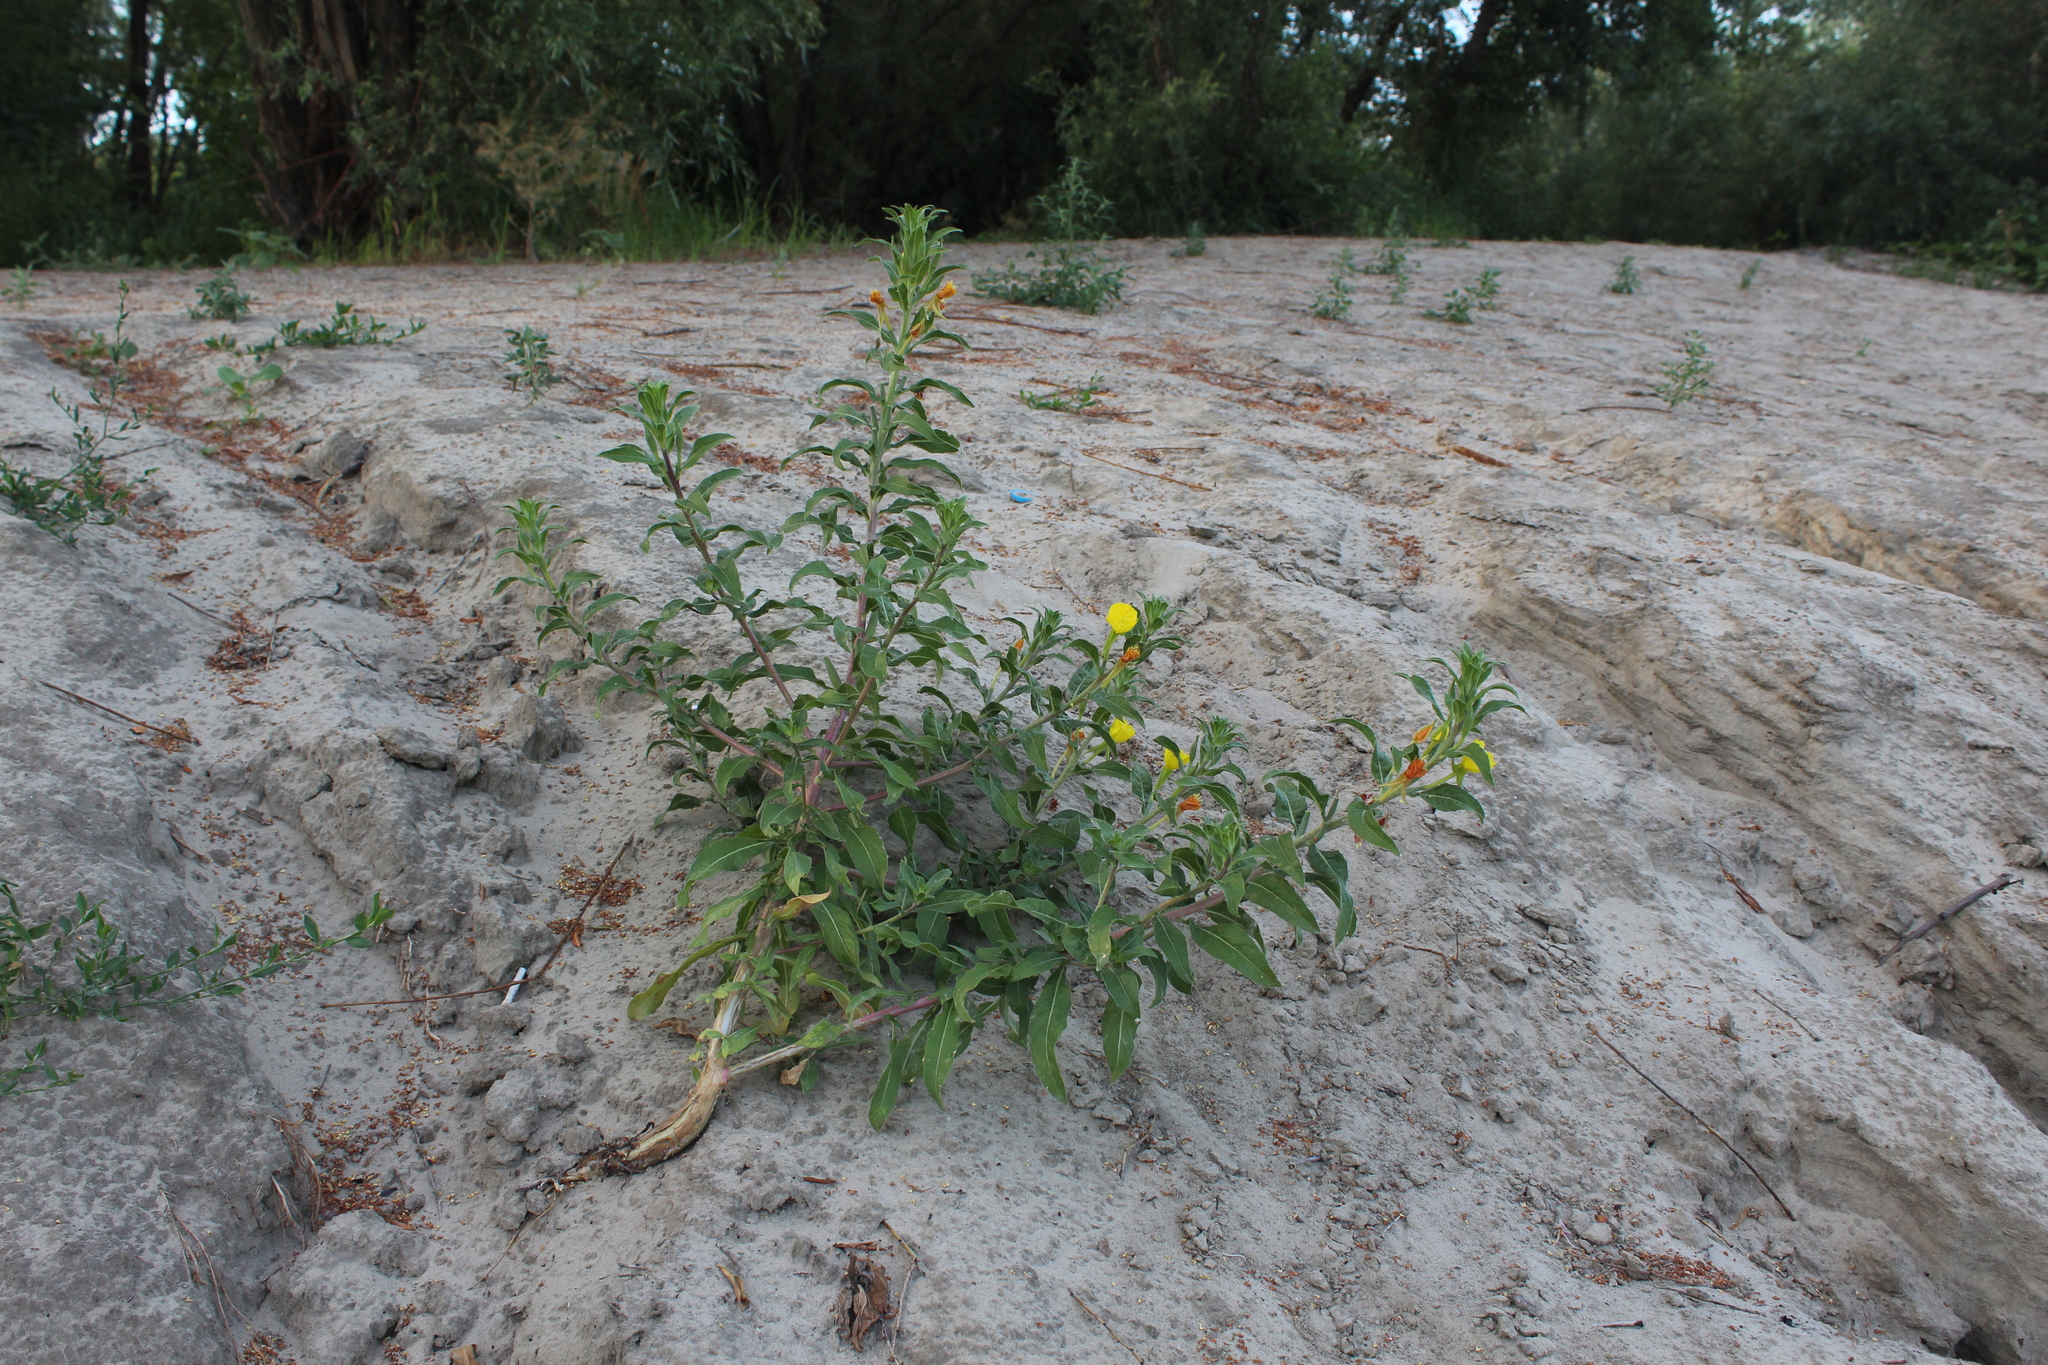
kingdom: Plantae
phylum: Tracheophyta
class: Magnoliopsida
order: Myrtales
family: Onagraceae
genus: Oenothera
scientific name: Oenothera villosa
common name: Hairy evening-primrose
